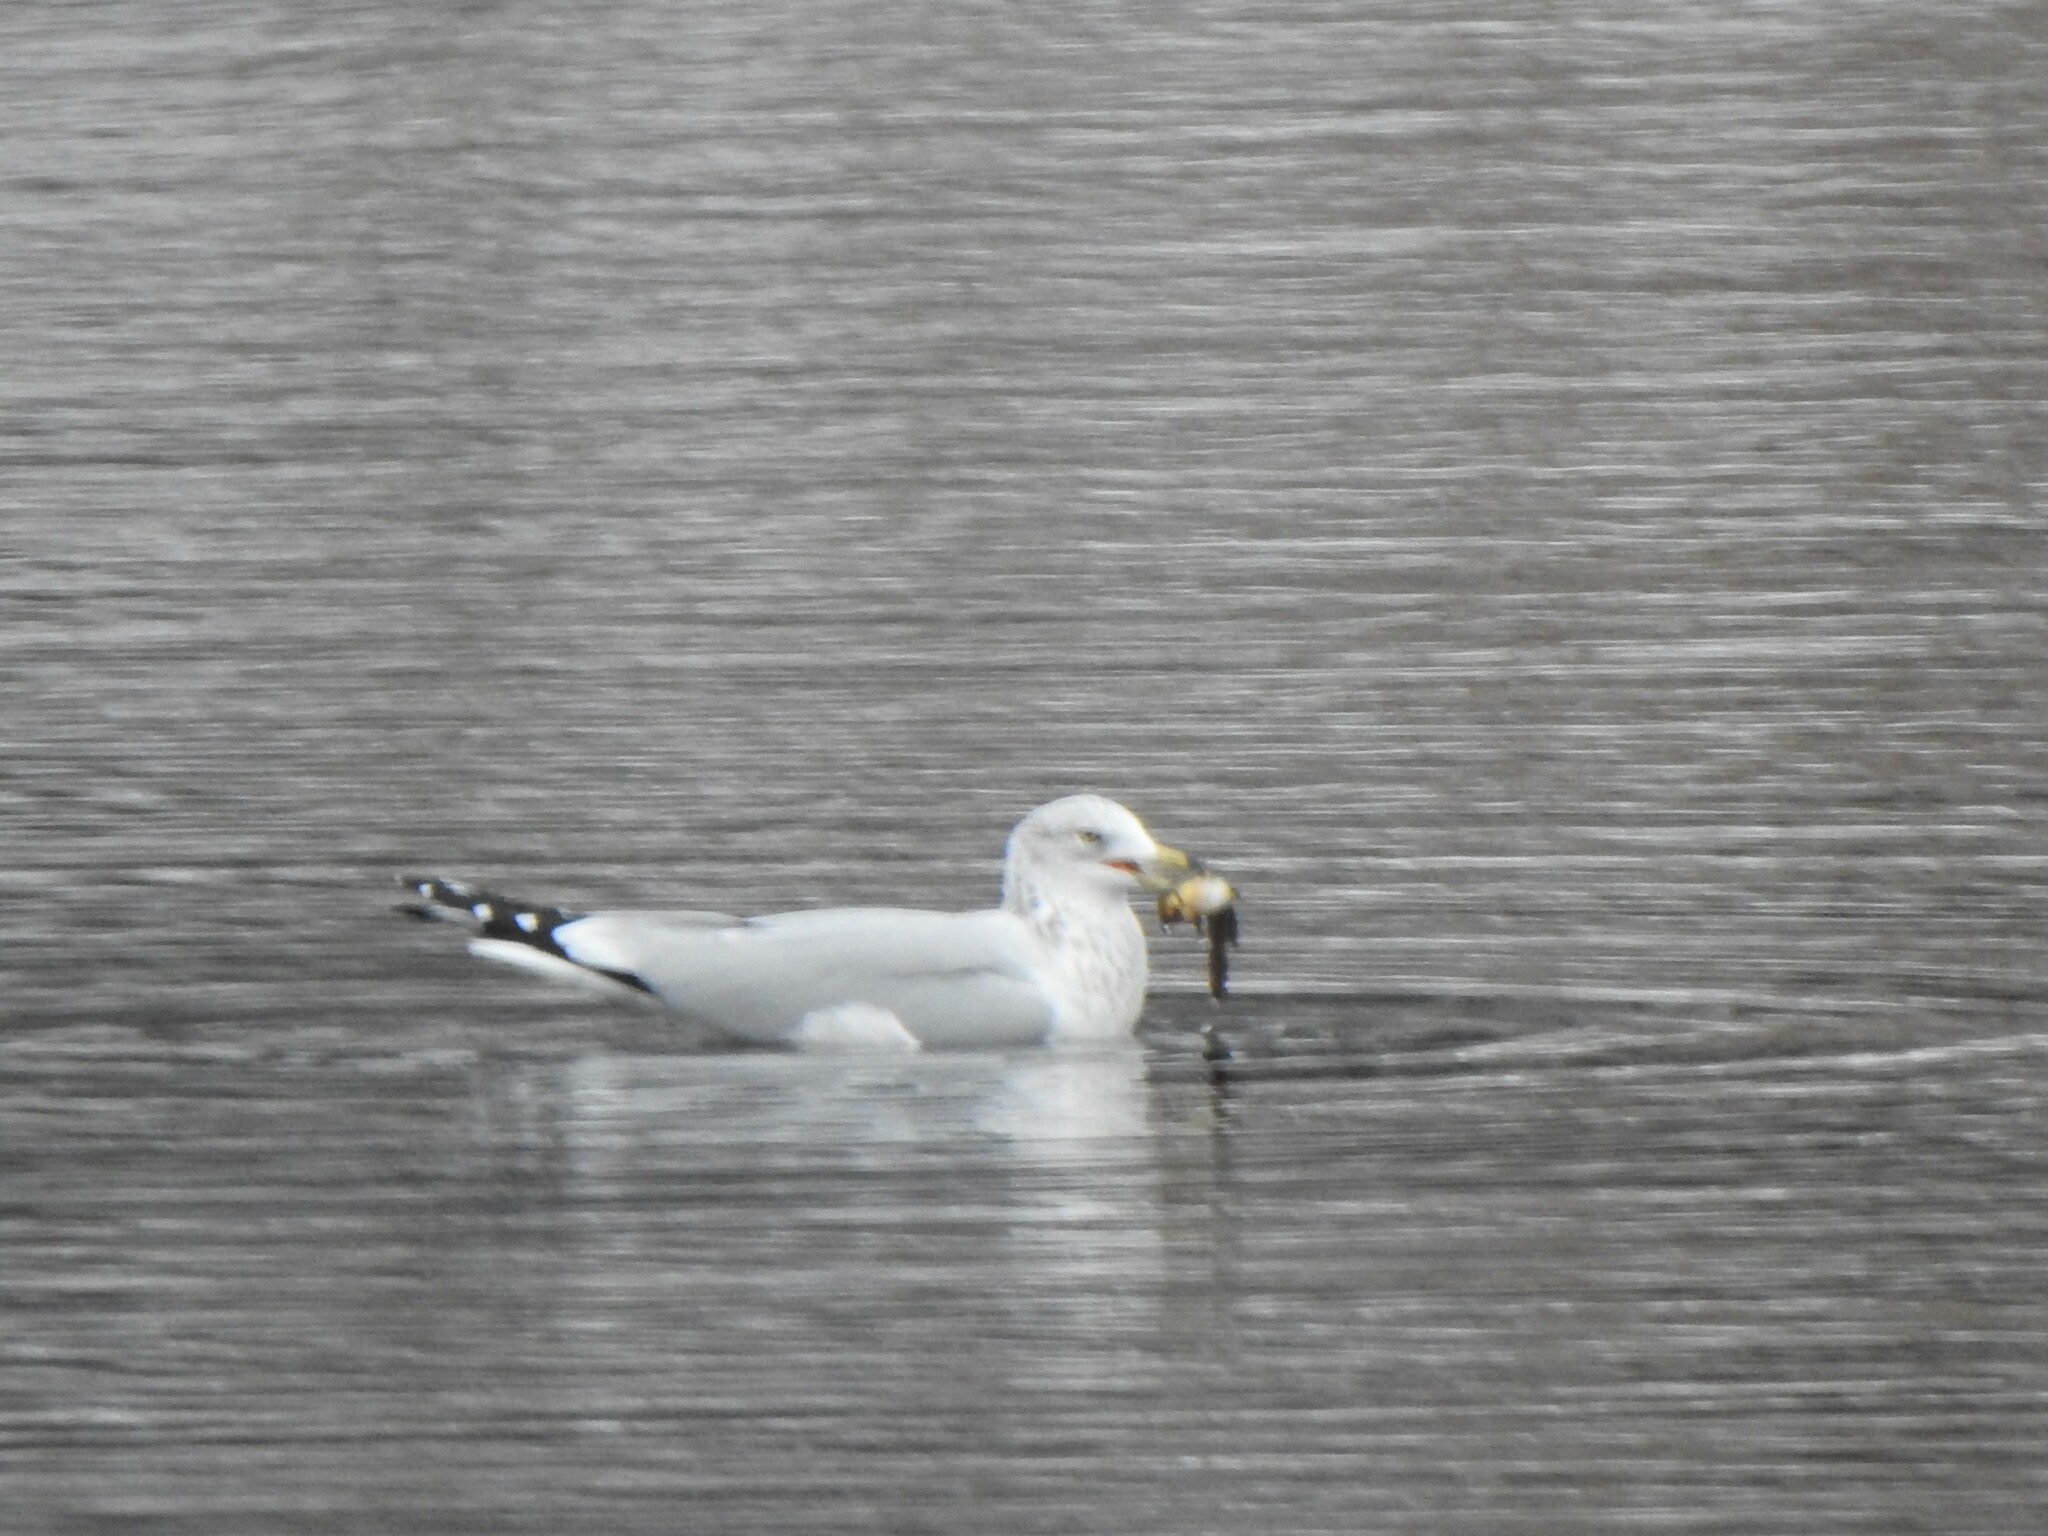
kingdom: Animalia
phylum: Chordata
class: Aves
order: Charadriiformes
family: Laridae
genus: Larus
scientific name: Larus delawarensis
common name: Ring-billed gull
